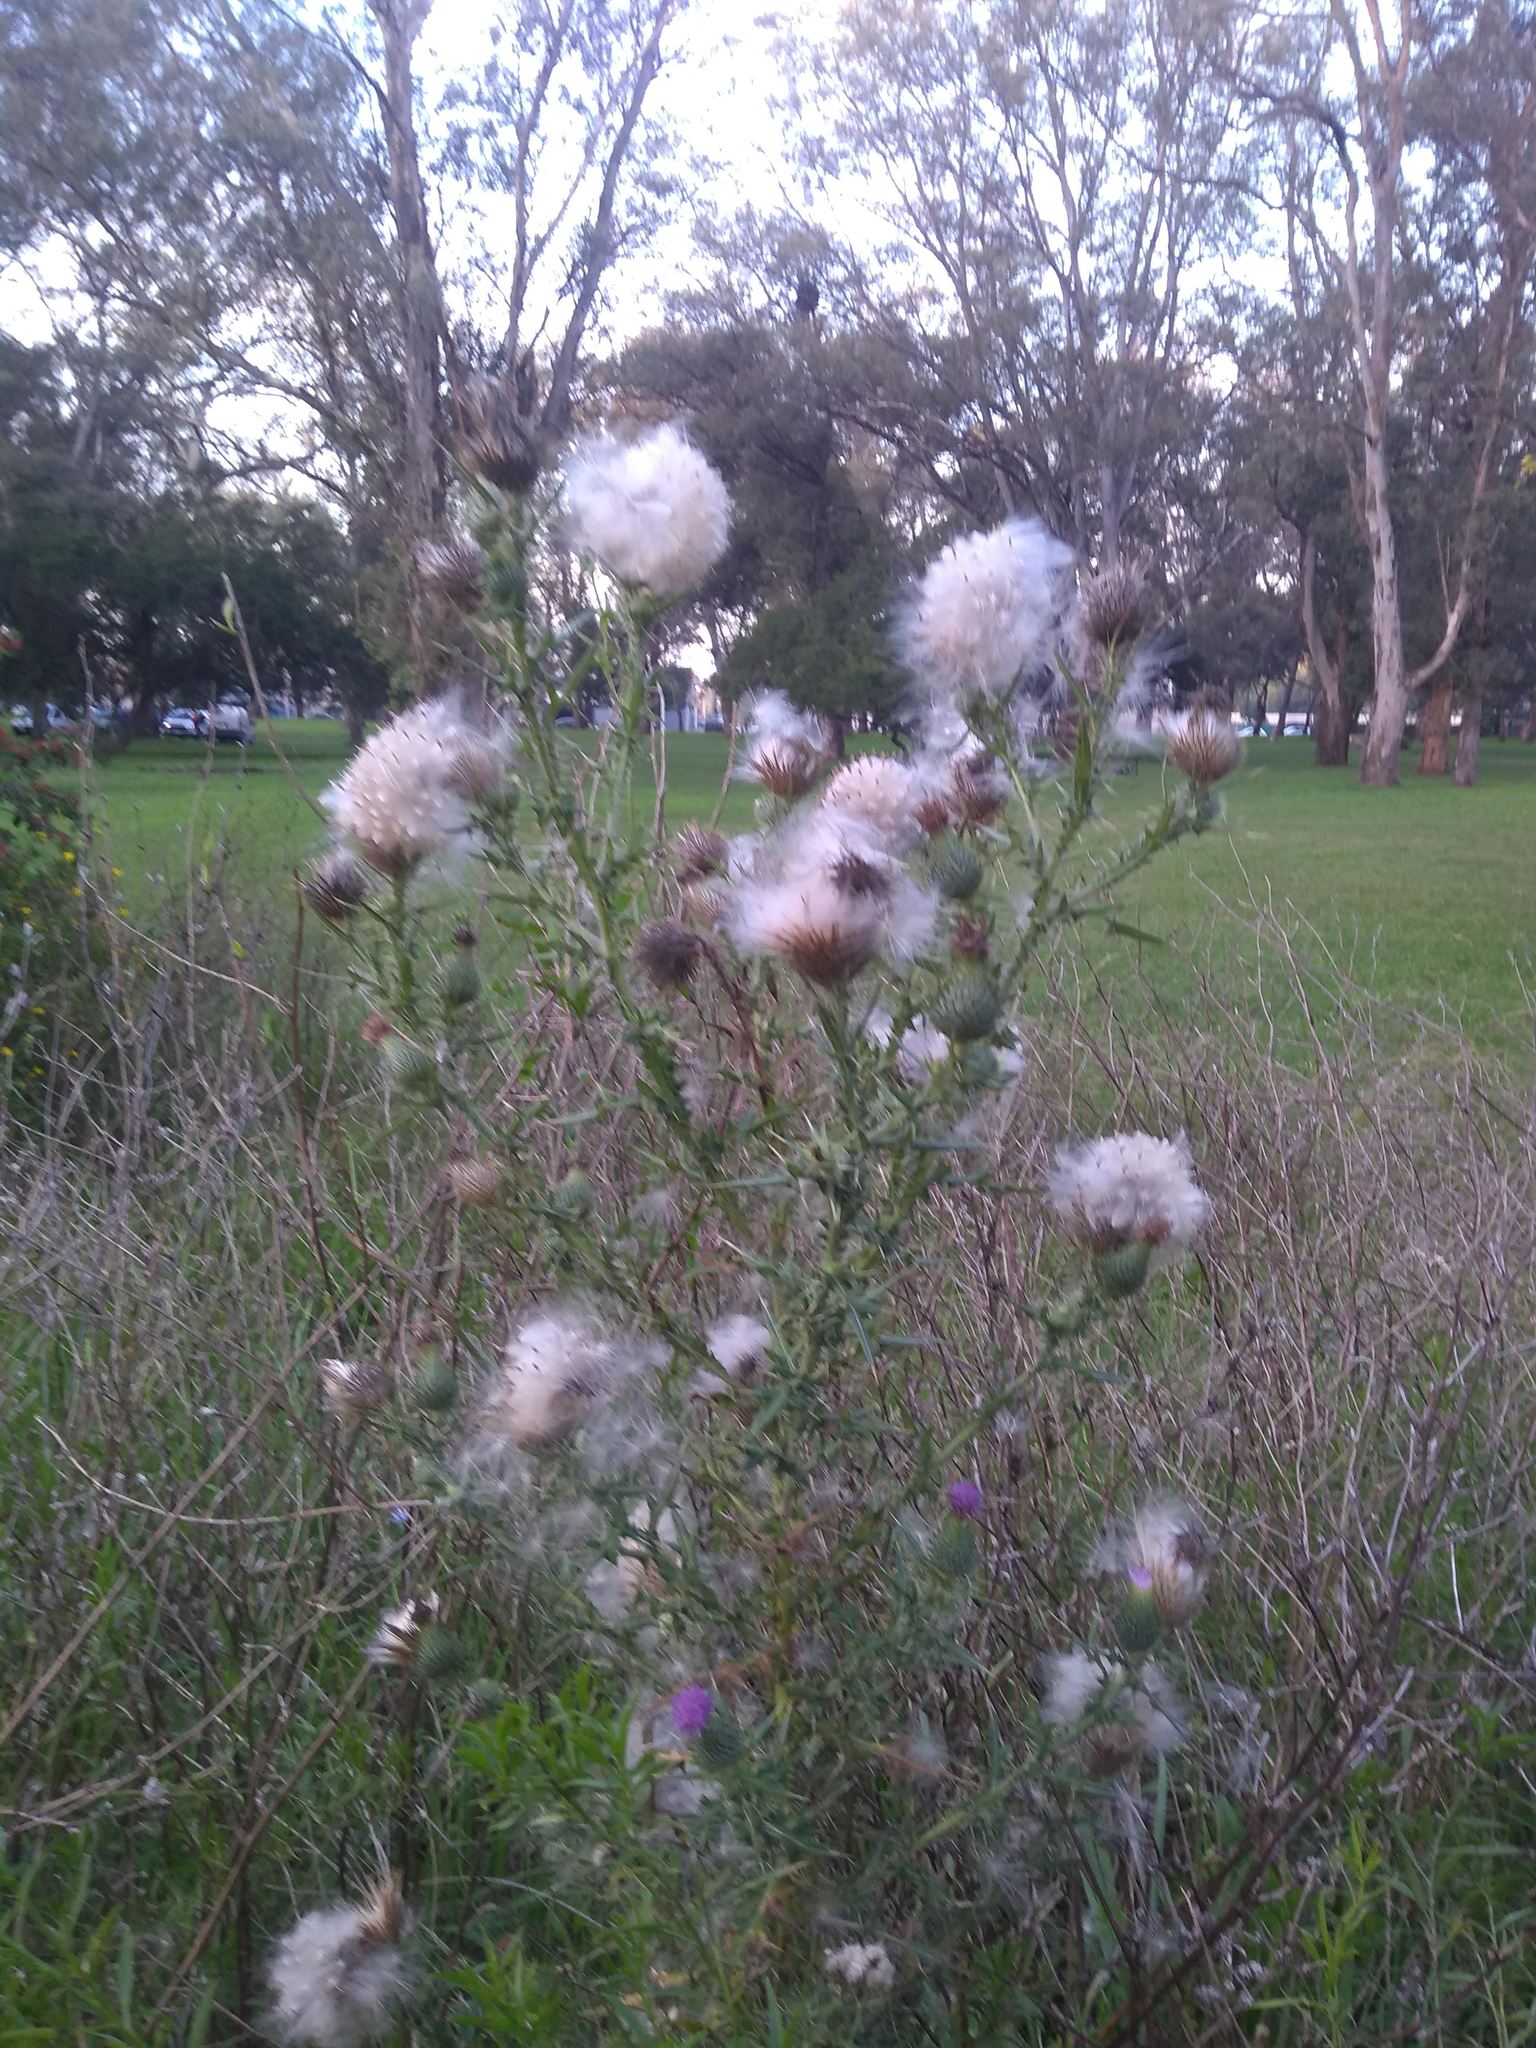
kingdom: Plantae
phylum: Tracheophyta
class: Magnoliopsida
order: Asterales
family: Asteraceae
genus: Cirsium
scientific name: Cirsium vulgare
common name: Bull thistle
